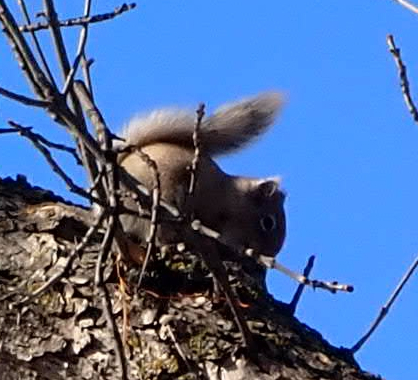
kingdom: Animalia
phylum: Chordata
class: Mammalia
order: Rodentia
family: Sciuridae
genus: Tamiasciurus
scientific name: Tamiasciurus hudsonicus
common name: Red squirrel
